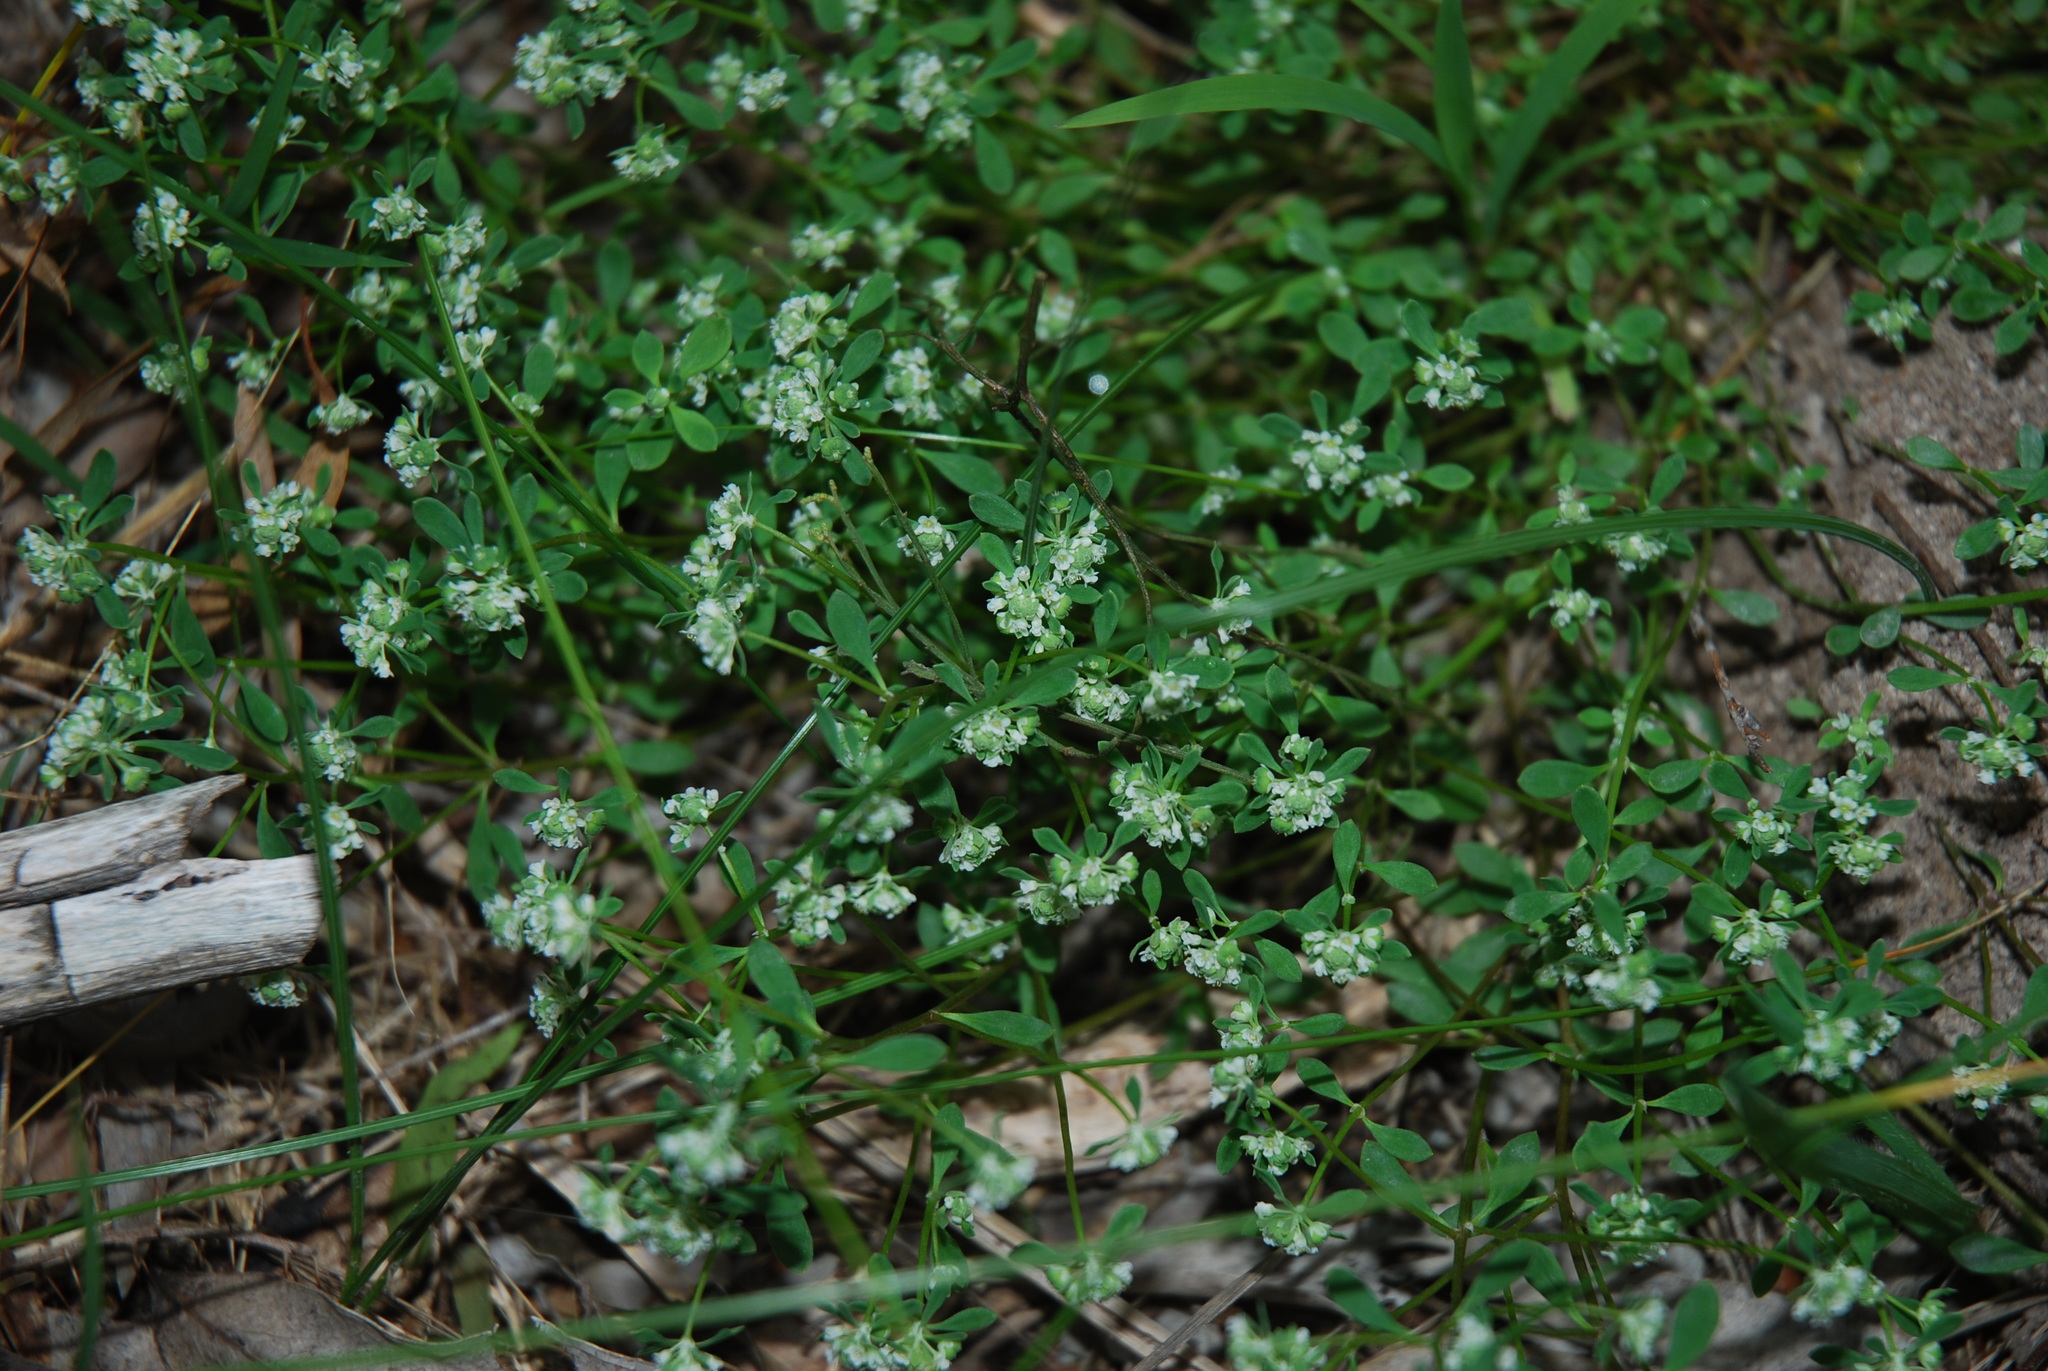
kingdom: Plantae
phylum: Tracheophyta
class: Magnoliopsida
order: Malpighiales
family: Phyllanthaceae
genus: Poranthera
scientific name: Poranthera microphylla
